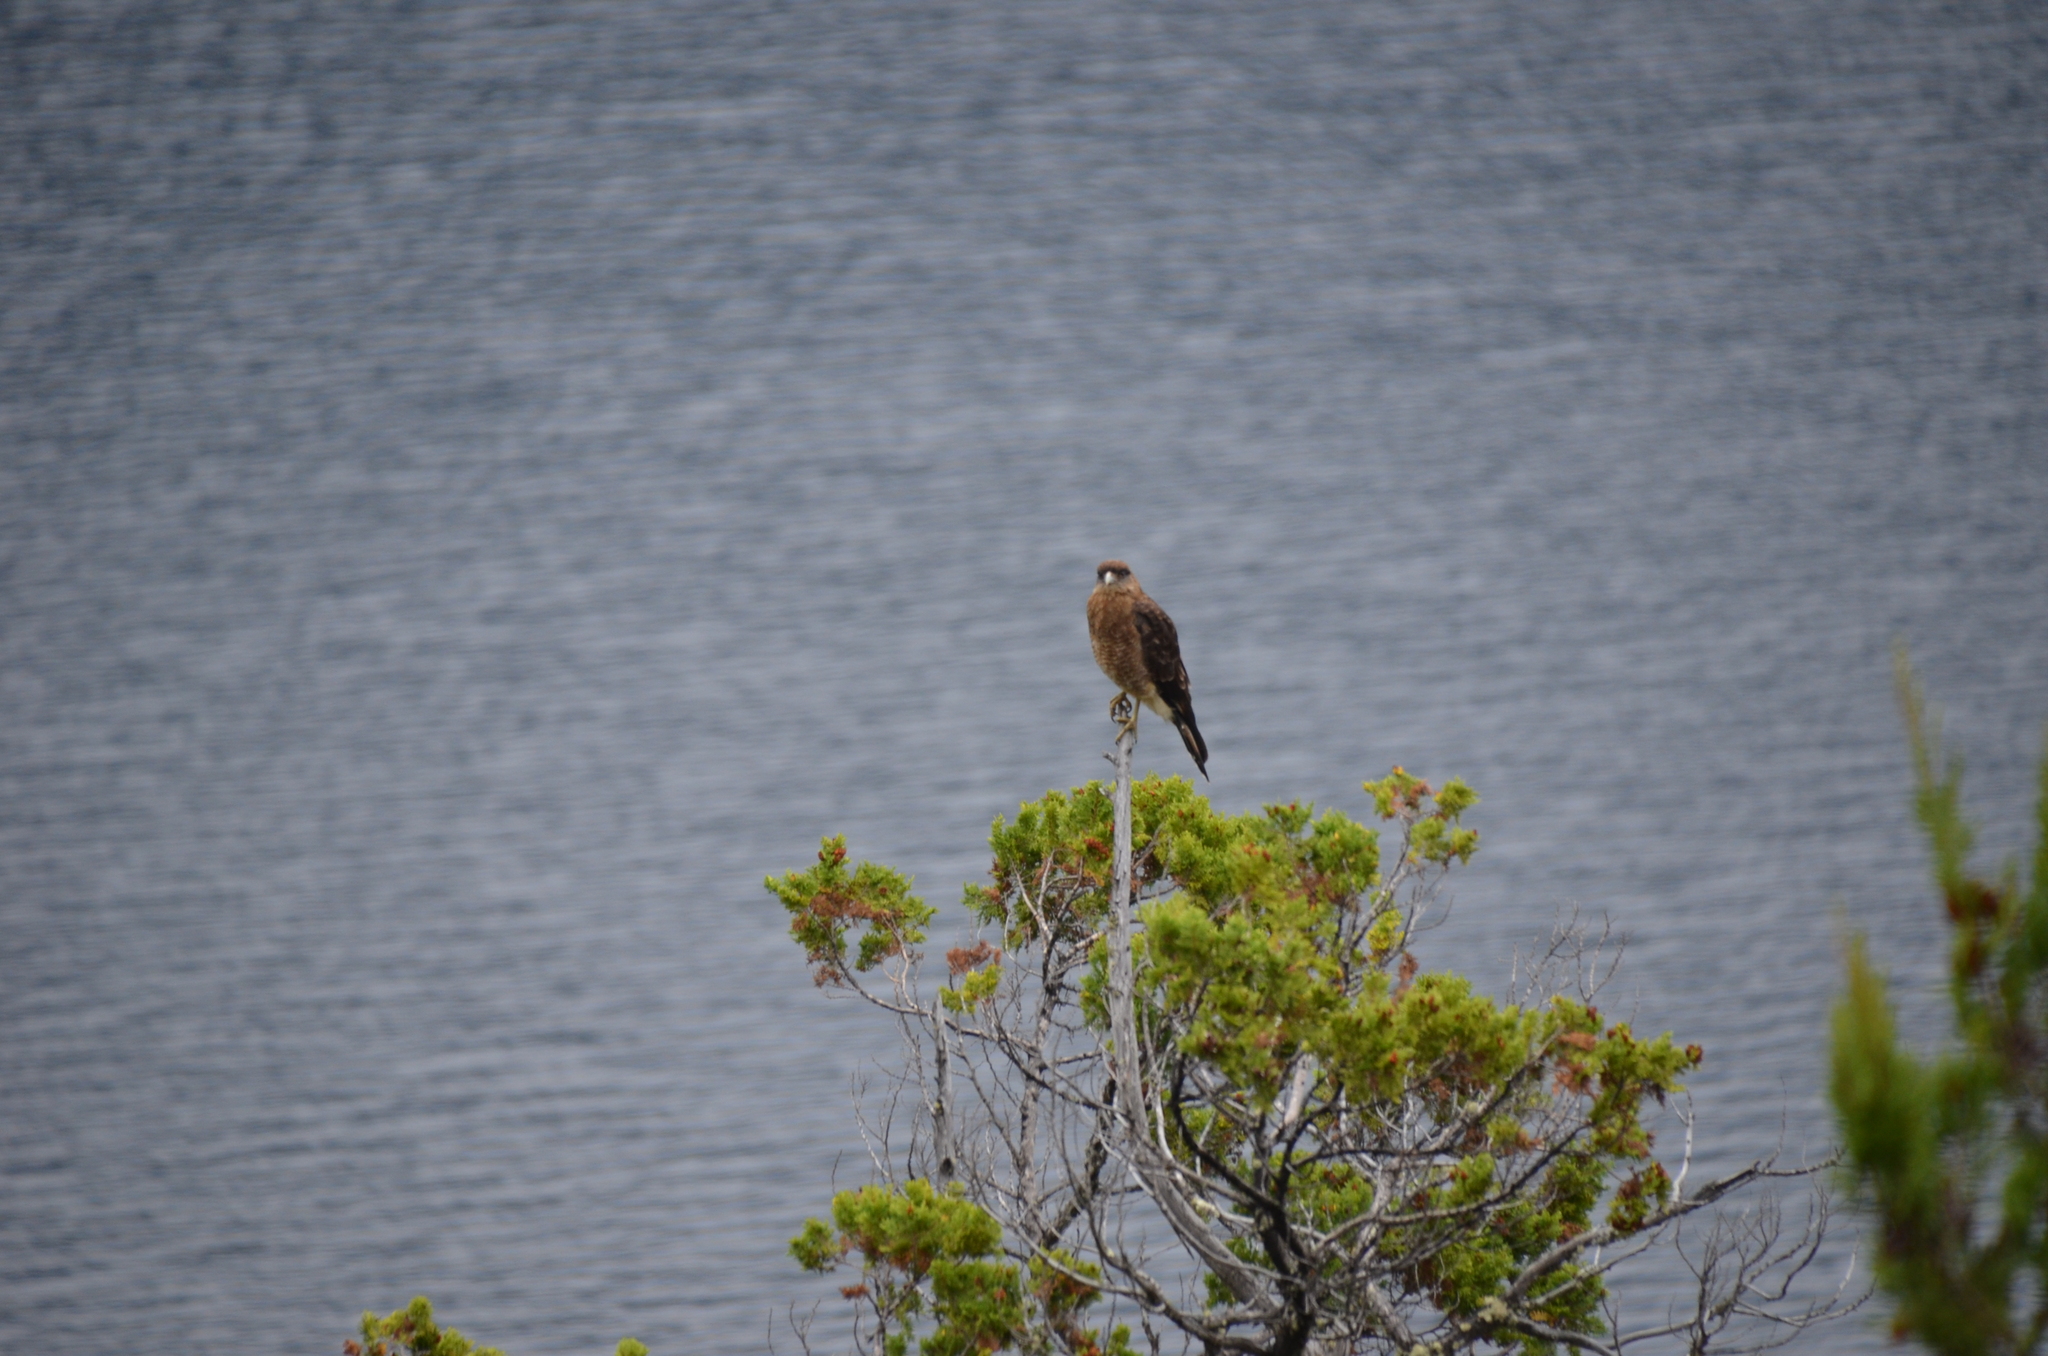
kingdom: Animalia
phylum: Chordata
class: Aves
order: Falconiformes
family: Falconidae
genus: Daptrius
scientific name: Daptrius
